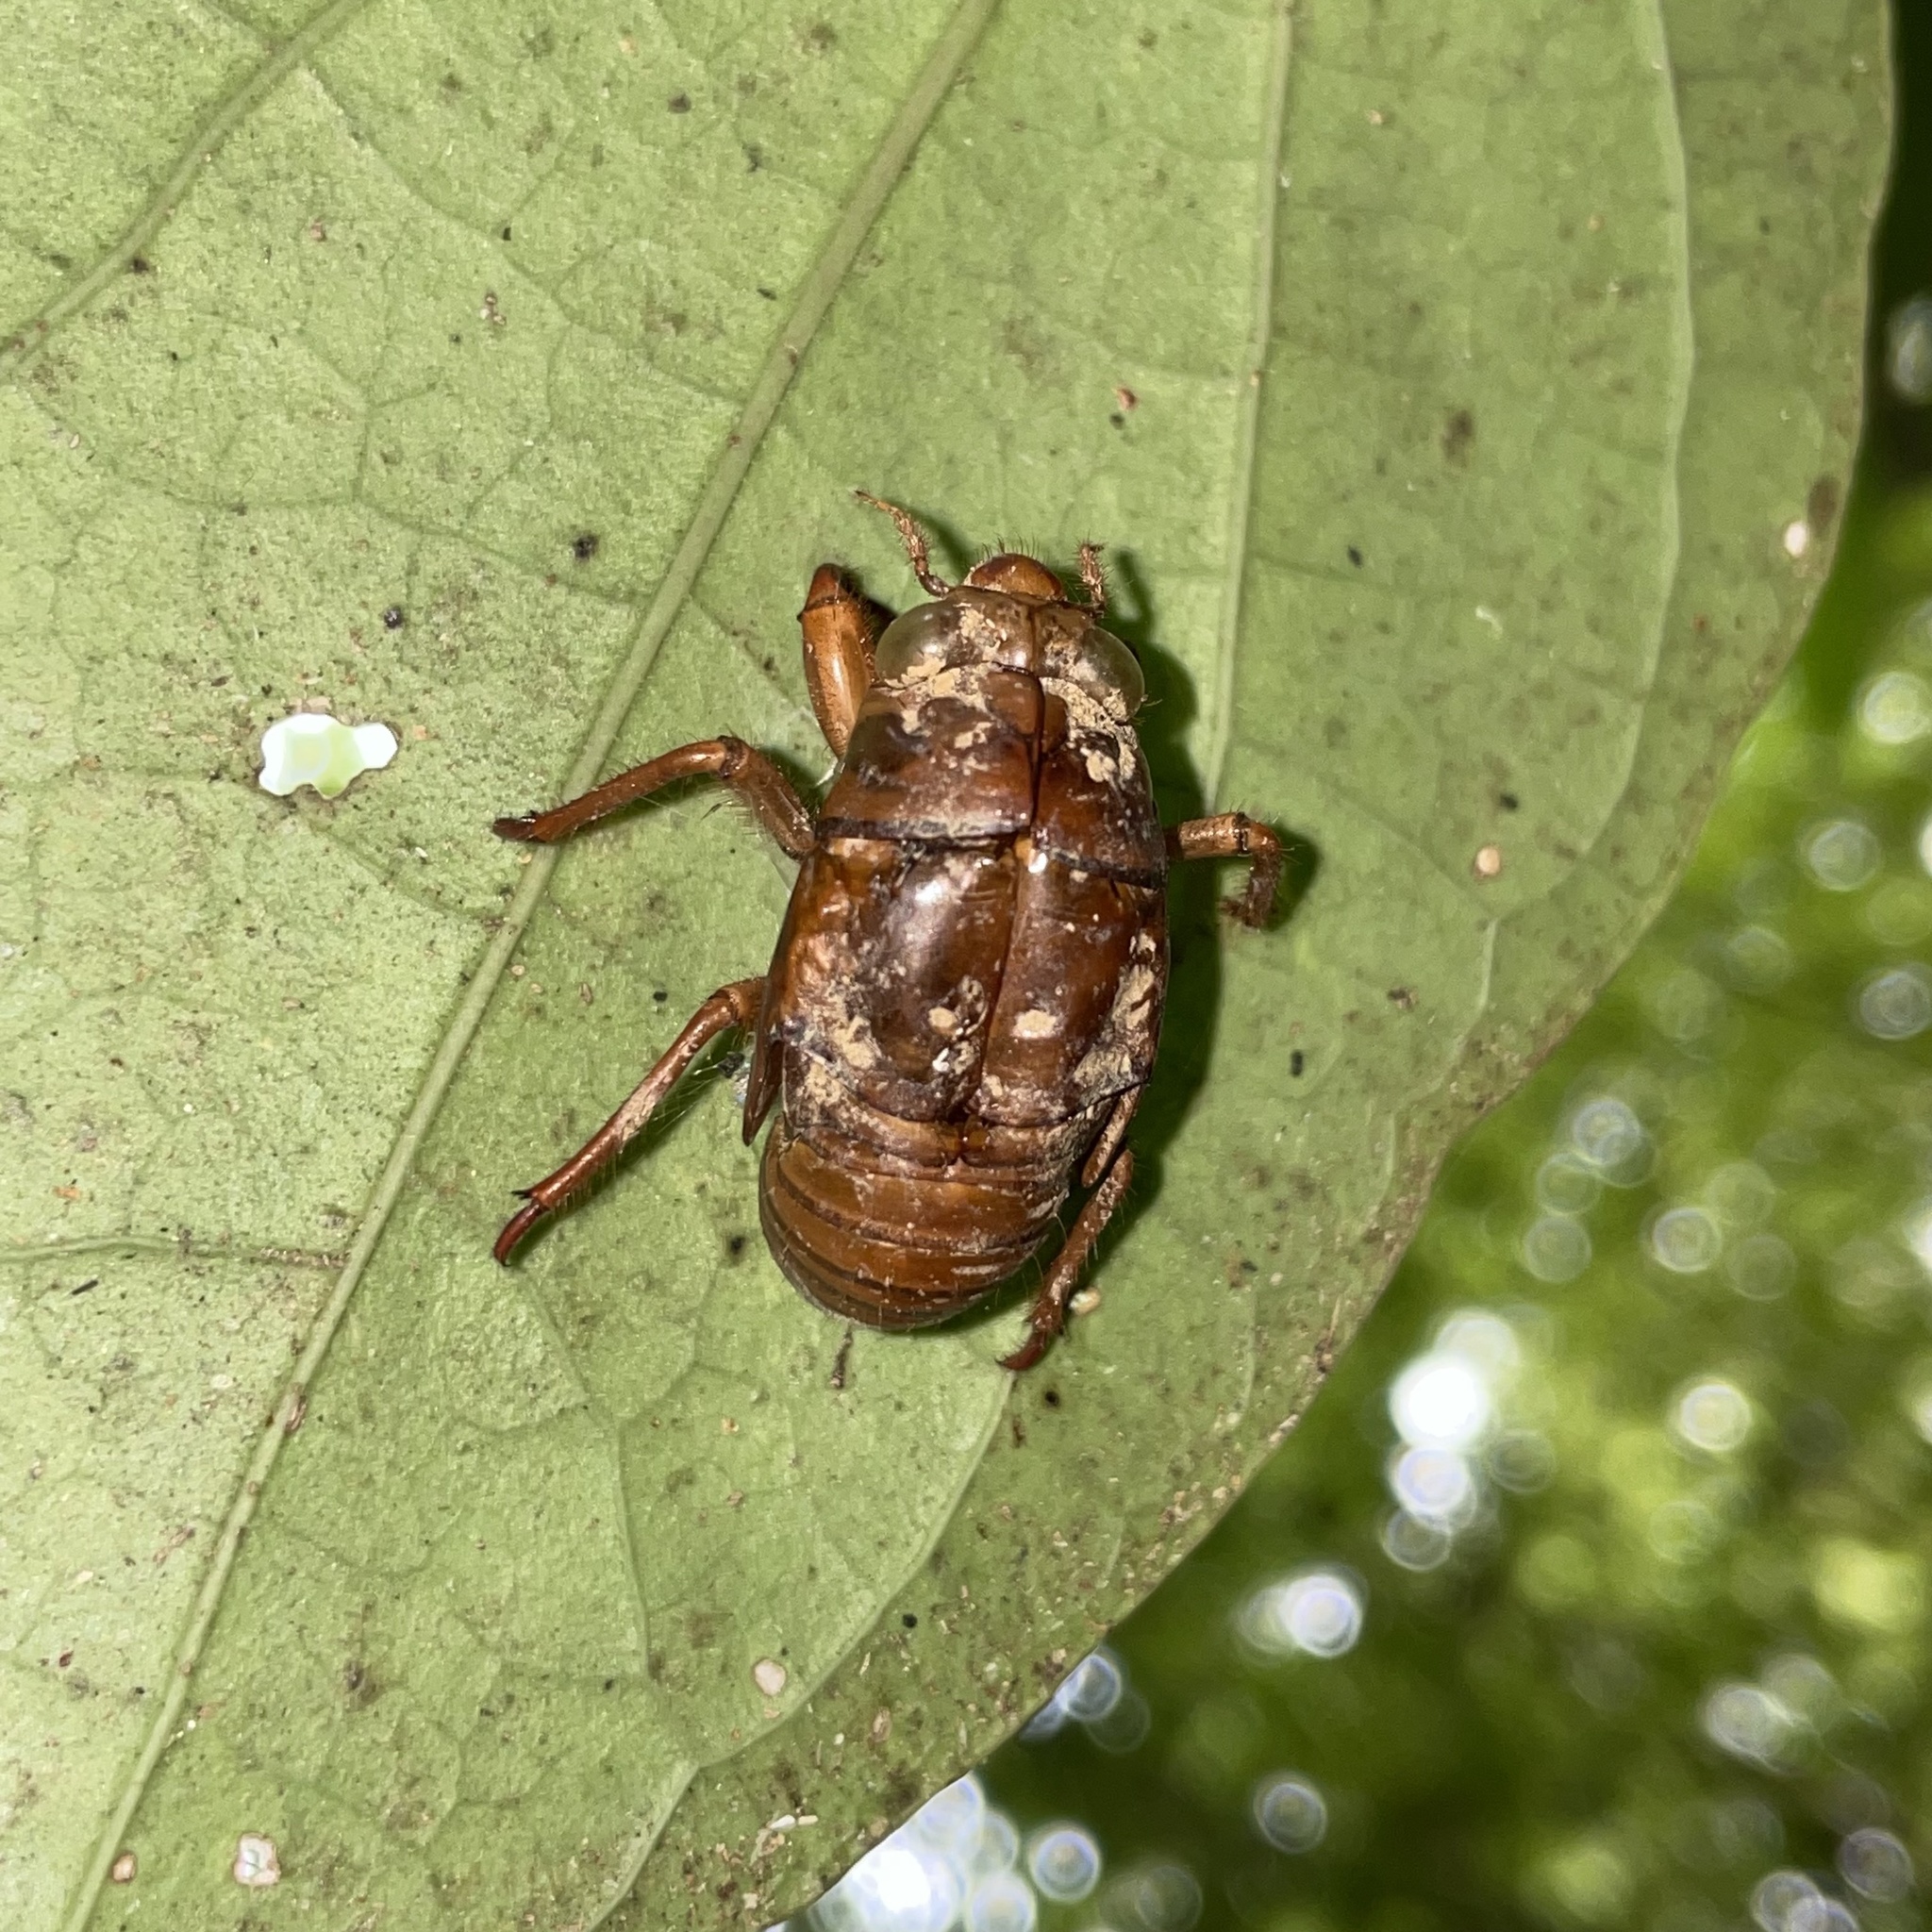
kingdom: Animalia
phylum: Arthropoda
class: Insecta
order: Hemiptera
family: Cicadidae
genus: Cryptotympana
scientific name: Cryptotympana facialis
